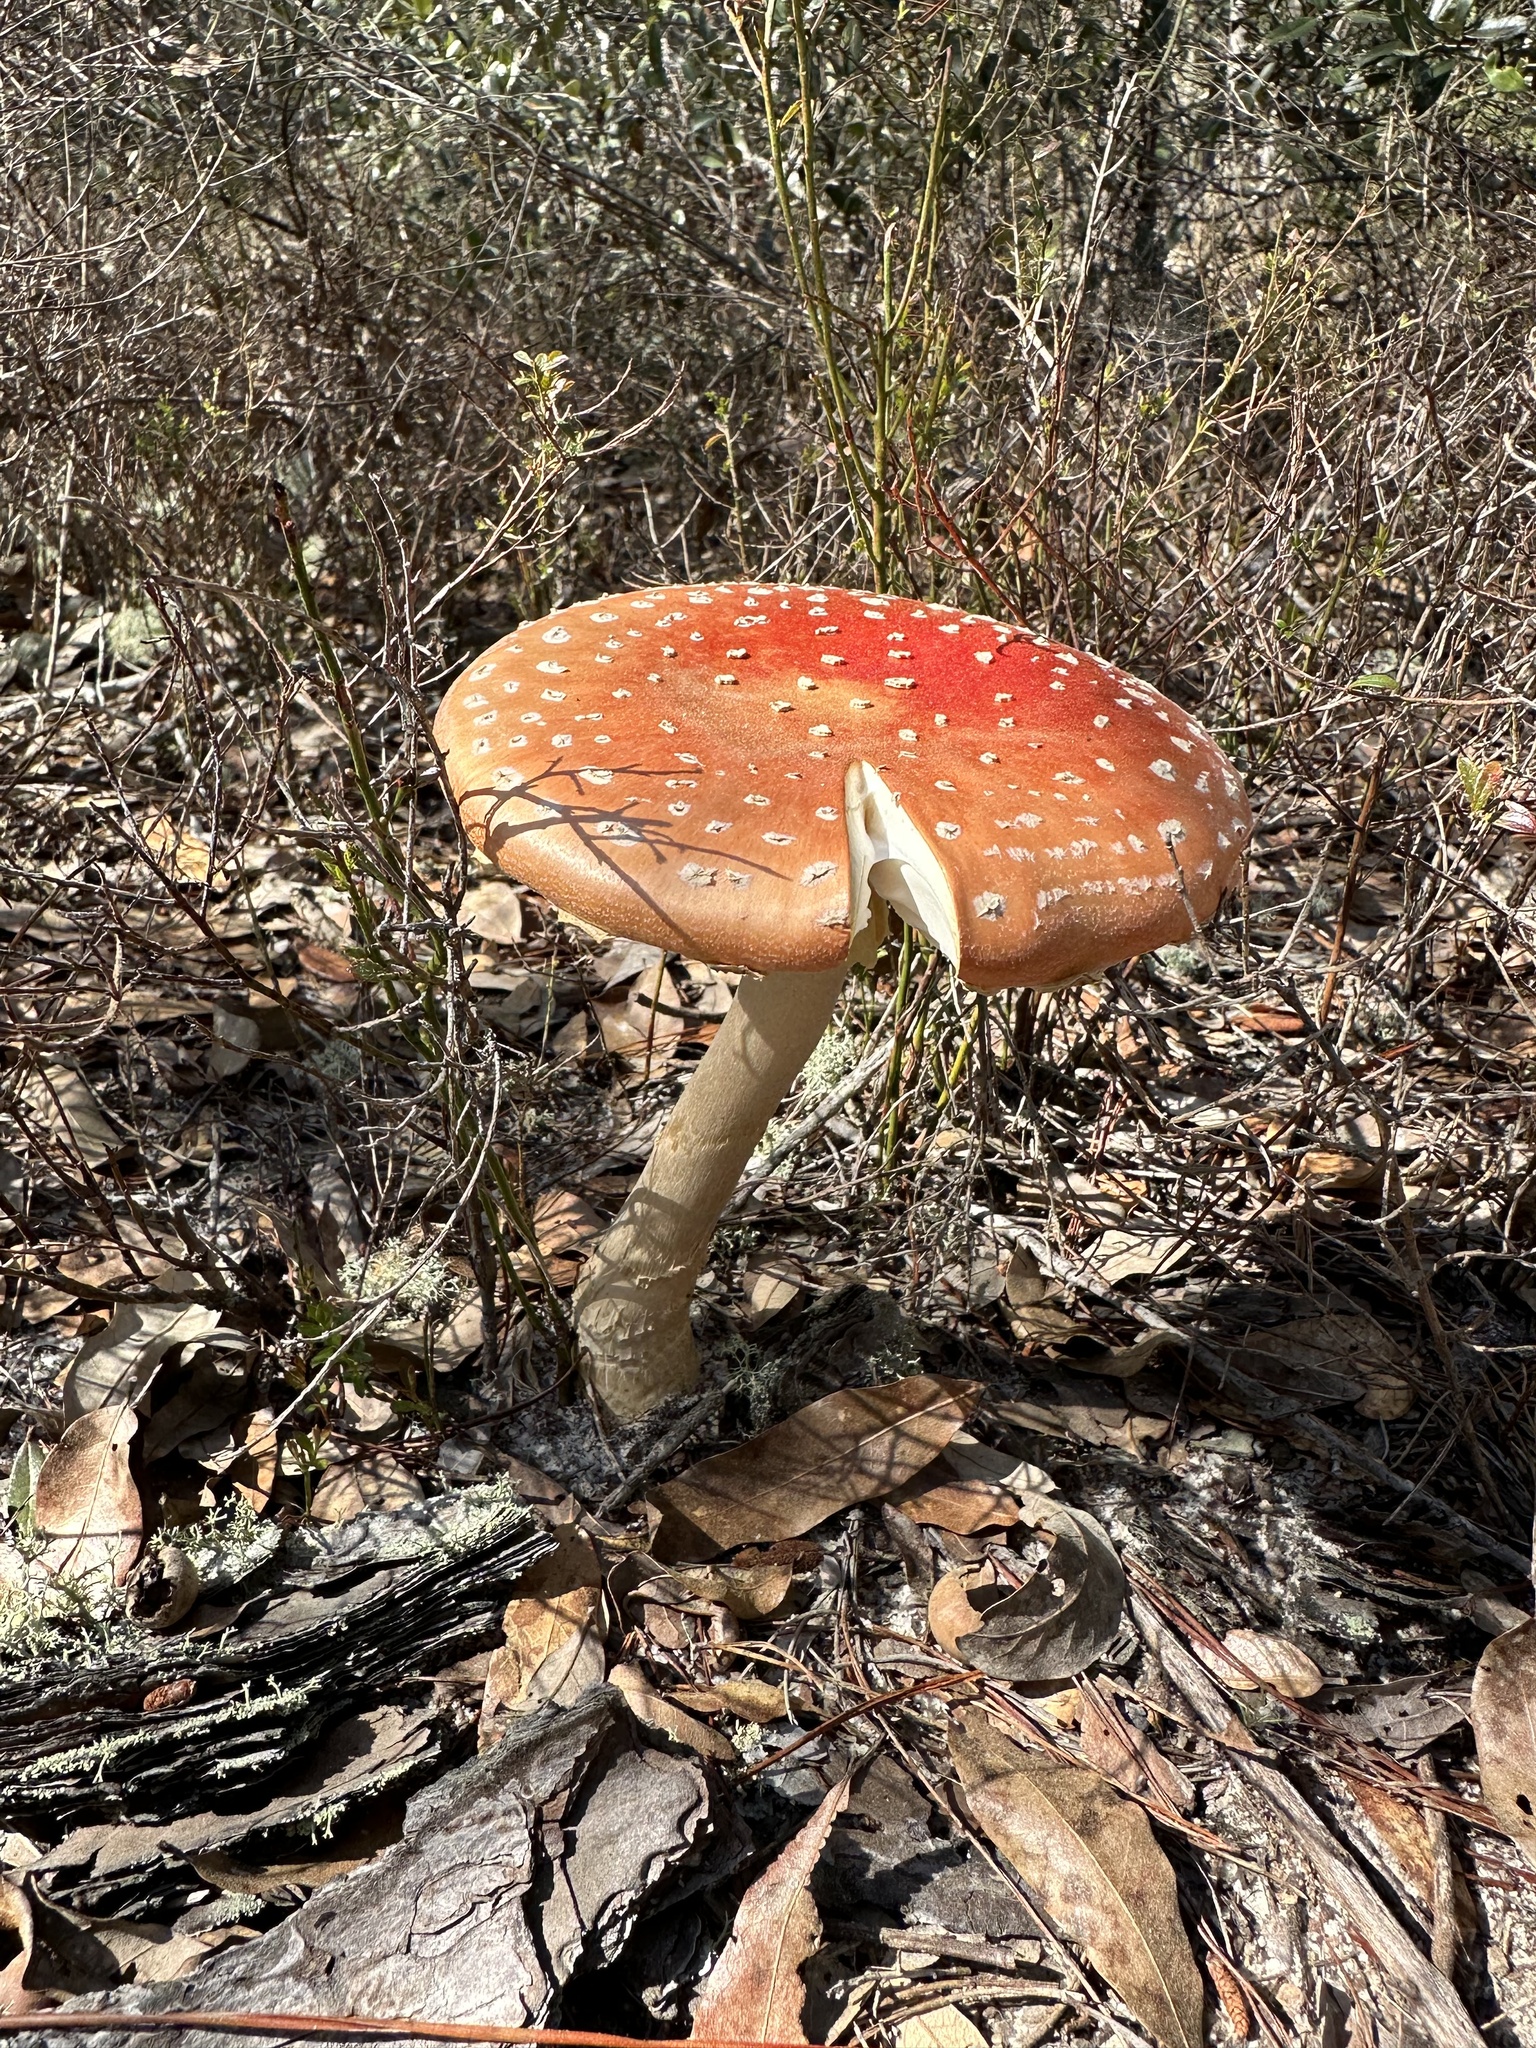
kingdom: Fungi
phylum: Basidiomycota
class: Agaricomycetes
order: Agaricales
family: Amanitaceae
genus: Amanita
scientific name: Amanita persicina
